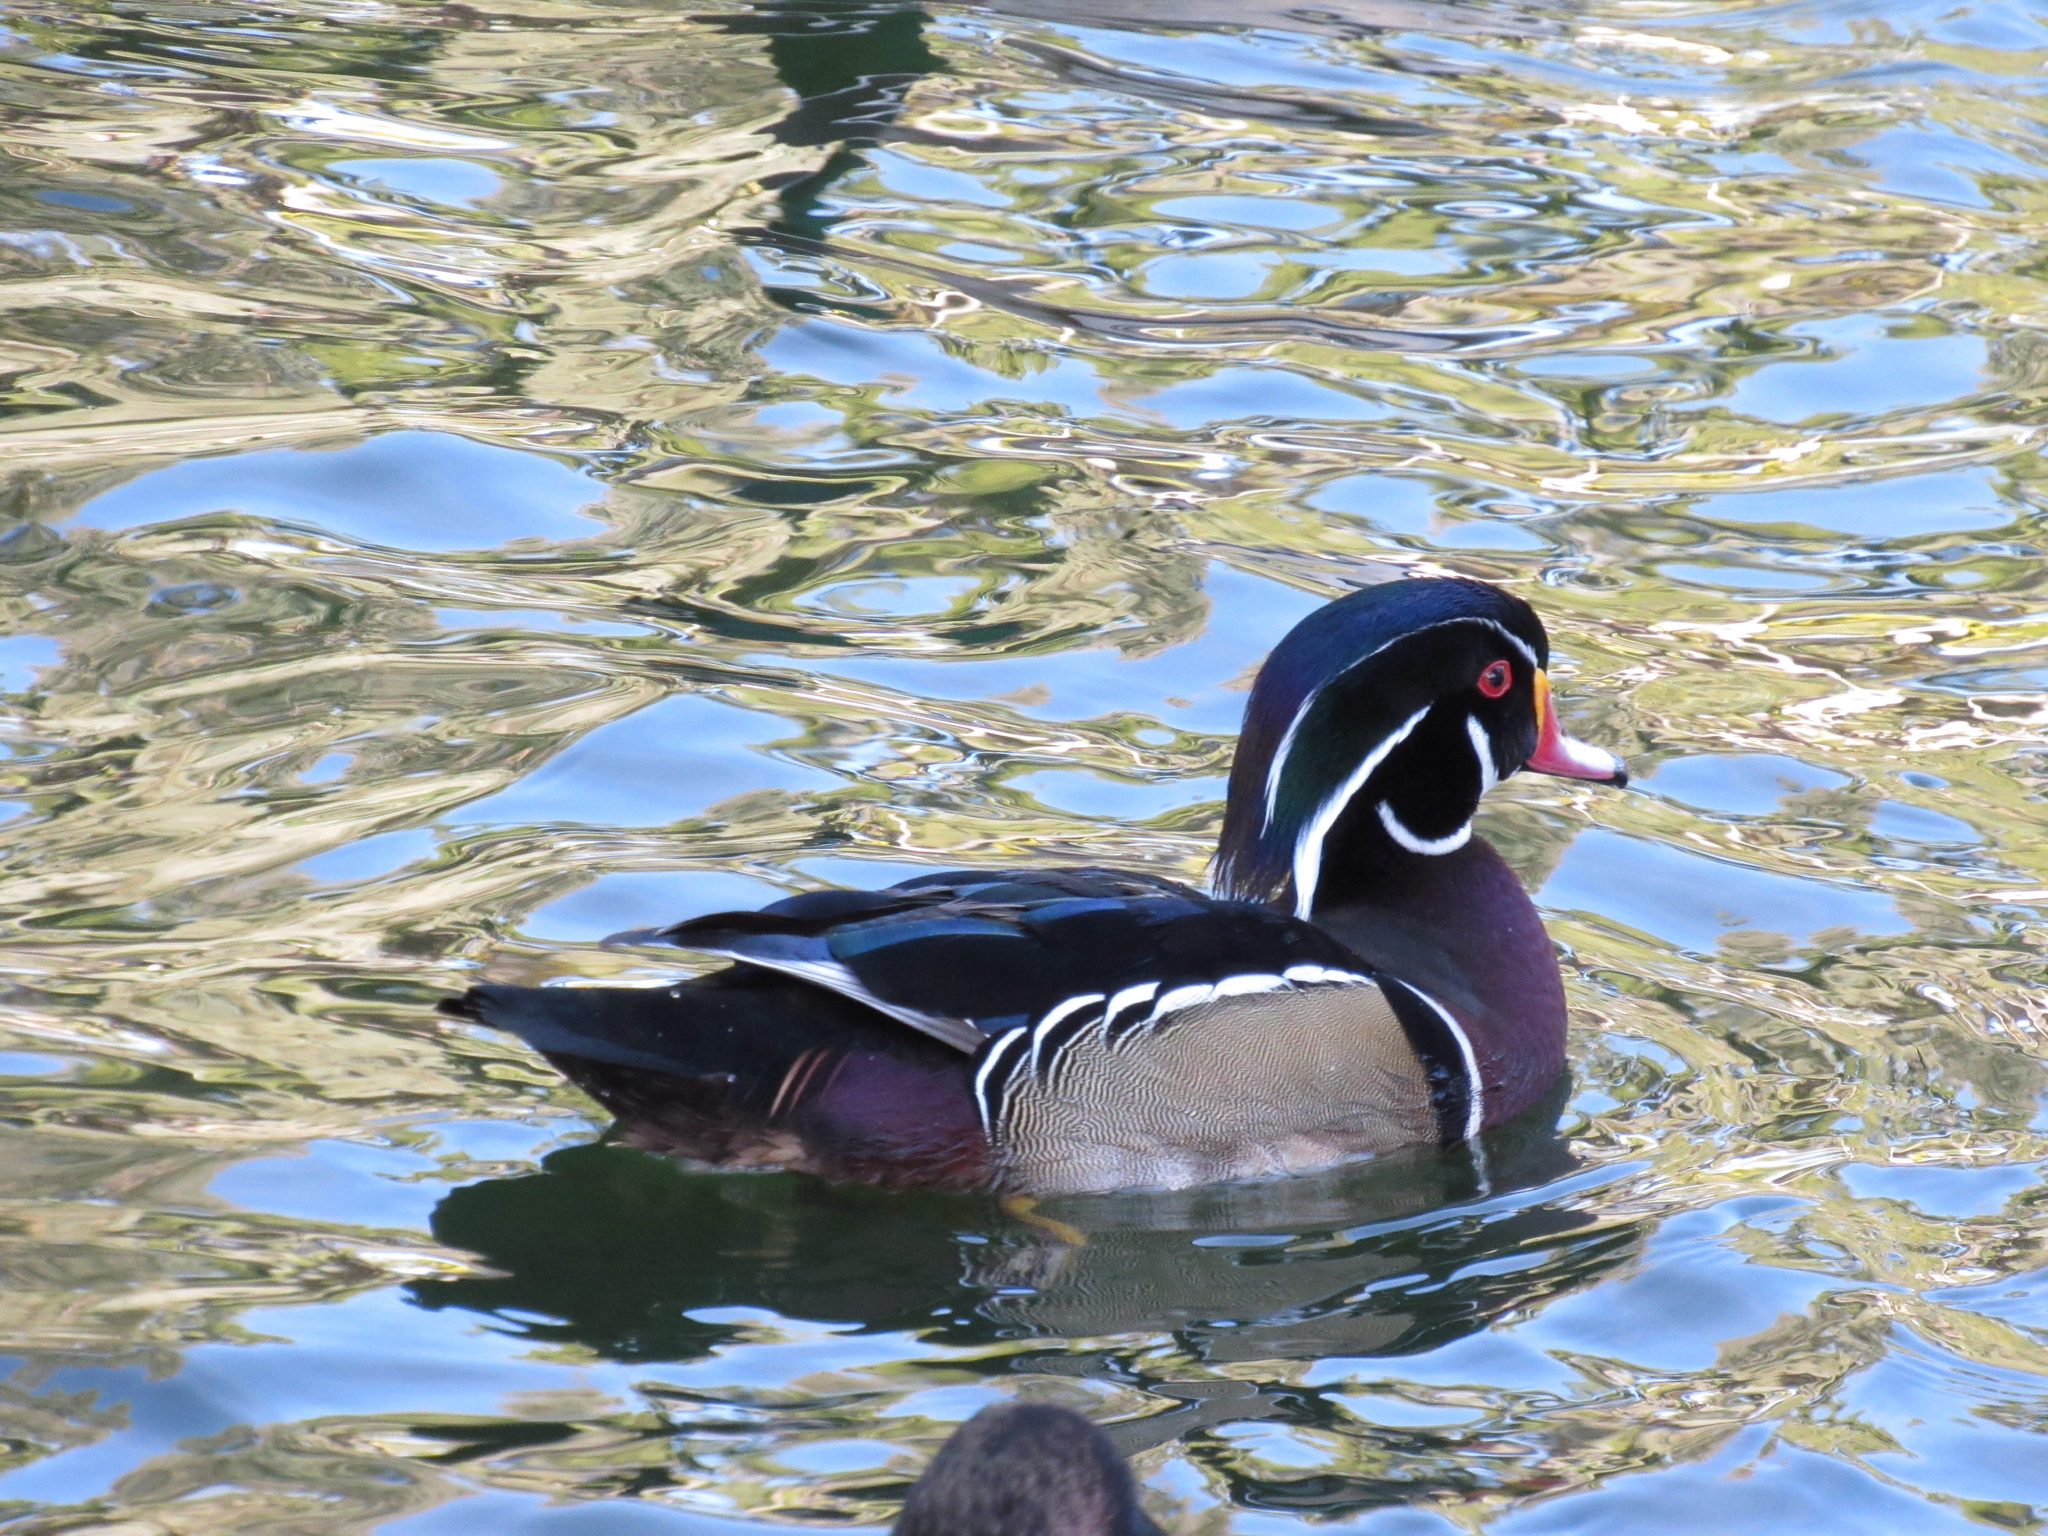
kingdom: Animalia
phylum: Chordata
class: Aves
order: Anseriformes
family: Anatidae
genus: Aix
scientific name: Aix sponsa
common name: Wood duck
